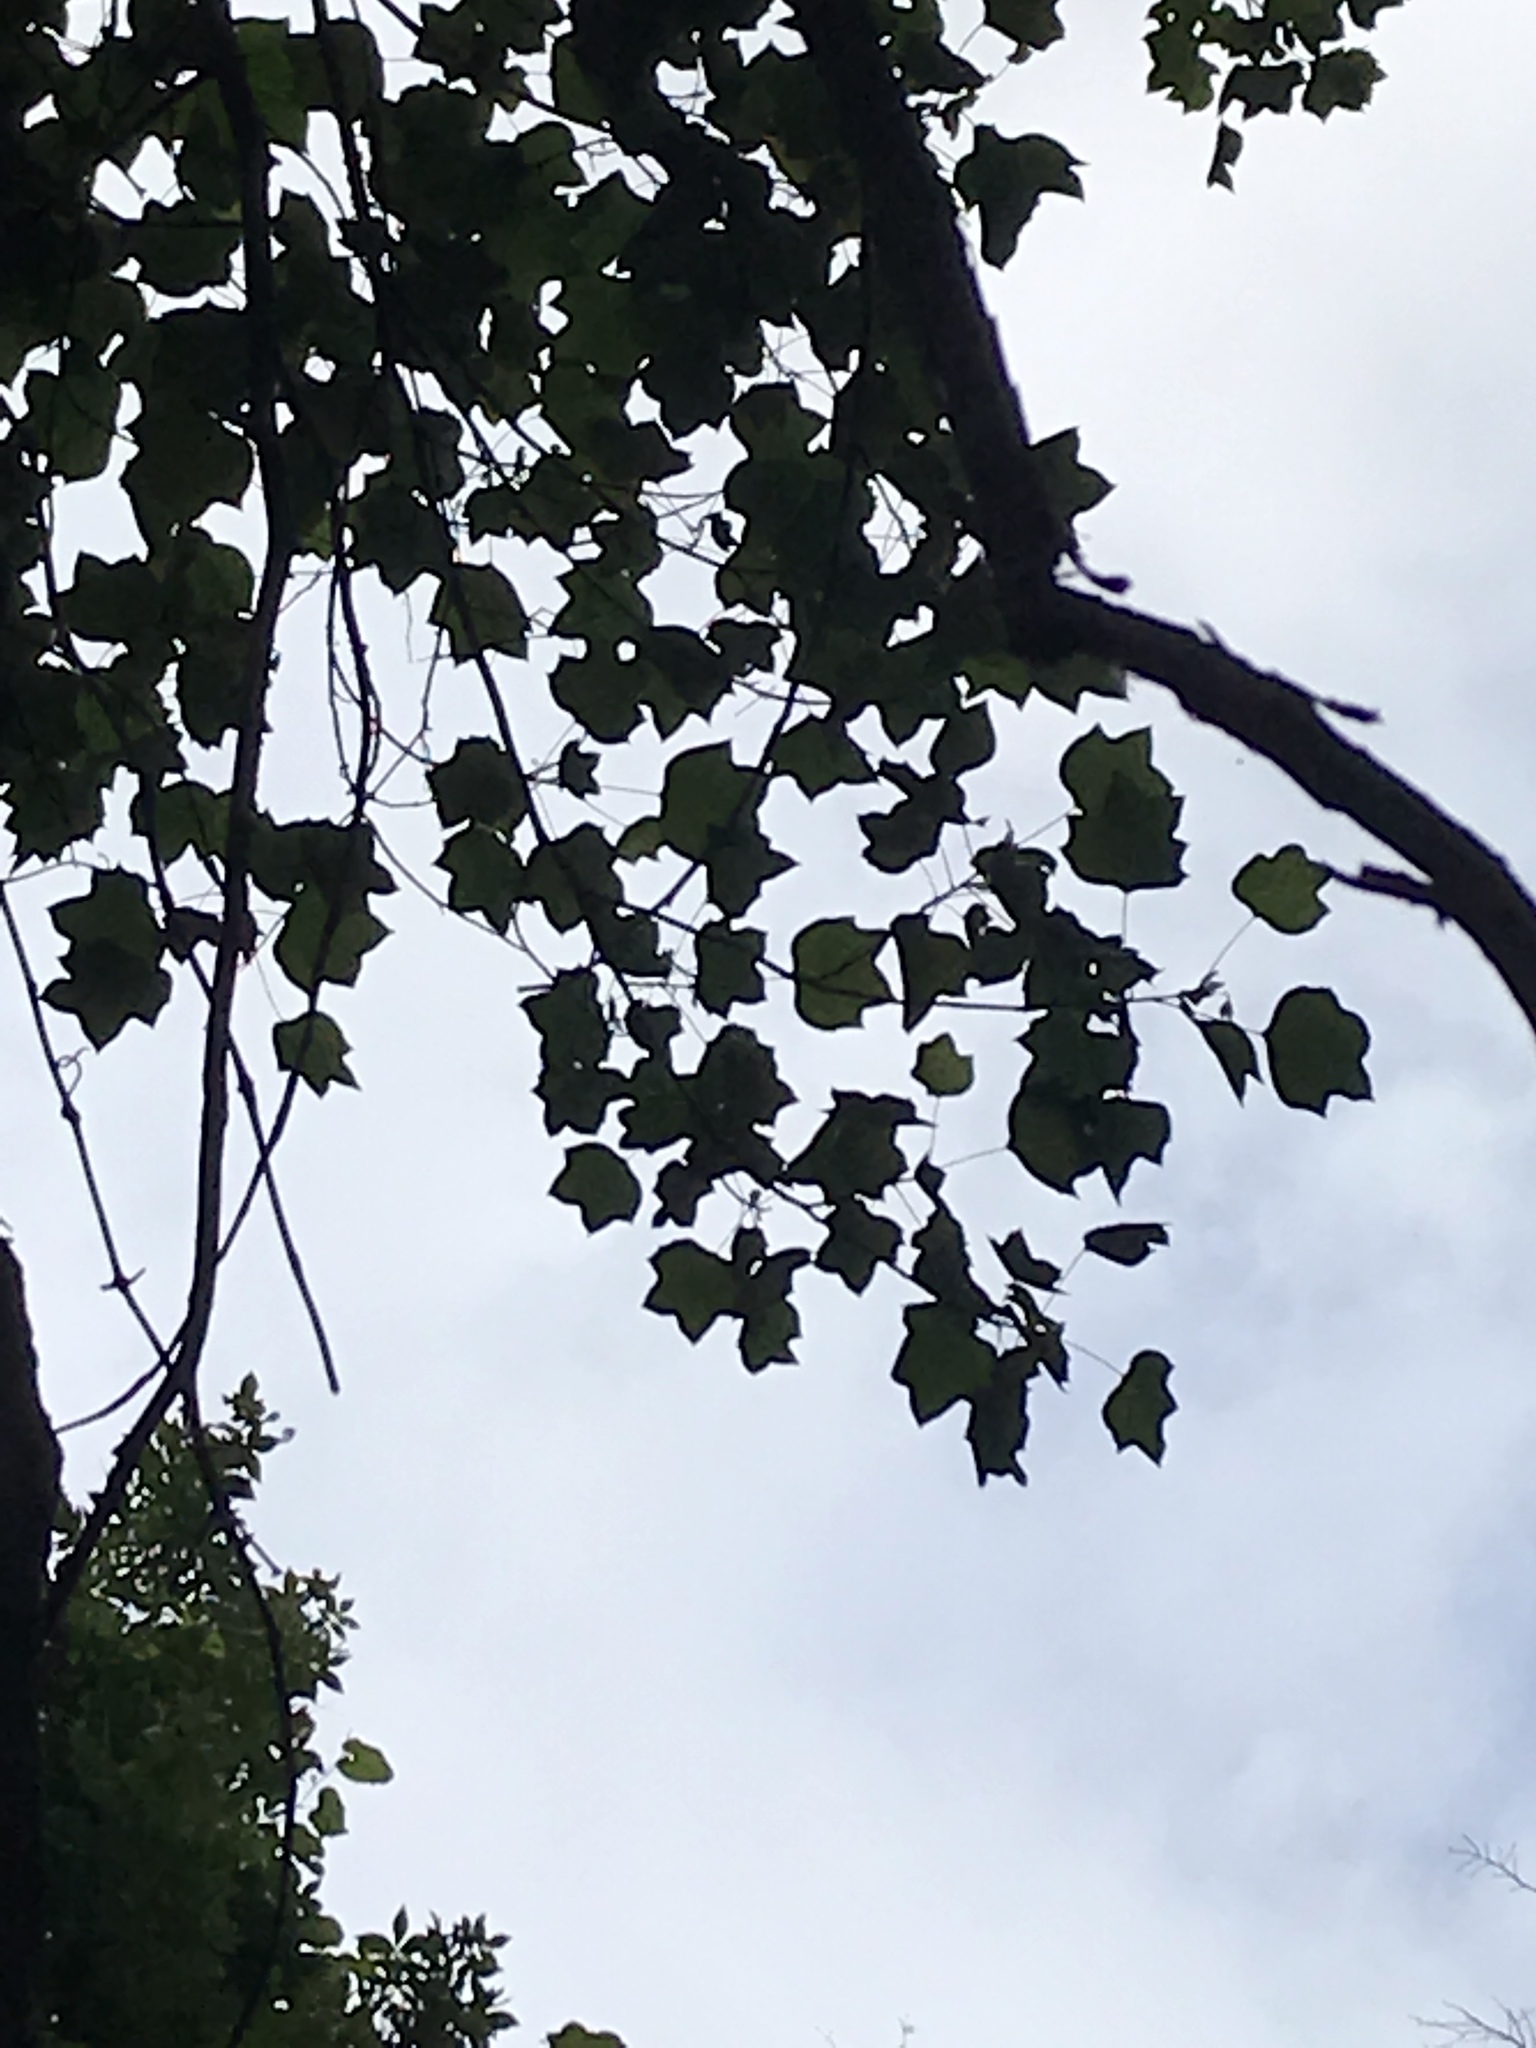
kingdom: Plantae
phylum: Tracheophyta
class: Magnoliopsida
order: Magnoliales
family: Magnoliaceae
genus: Liriodendron
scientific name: Liriodendron tulipifera
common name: Tulip tree
